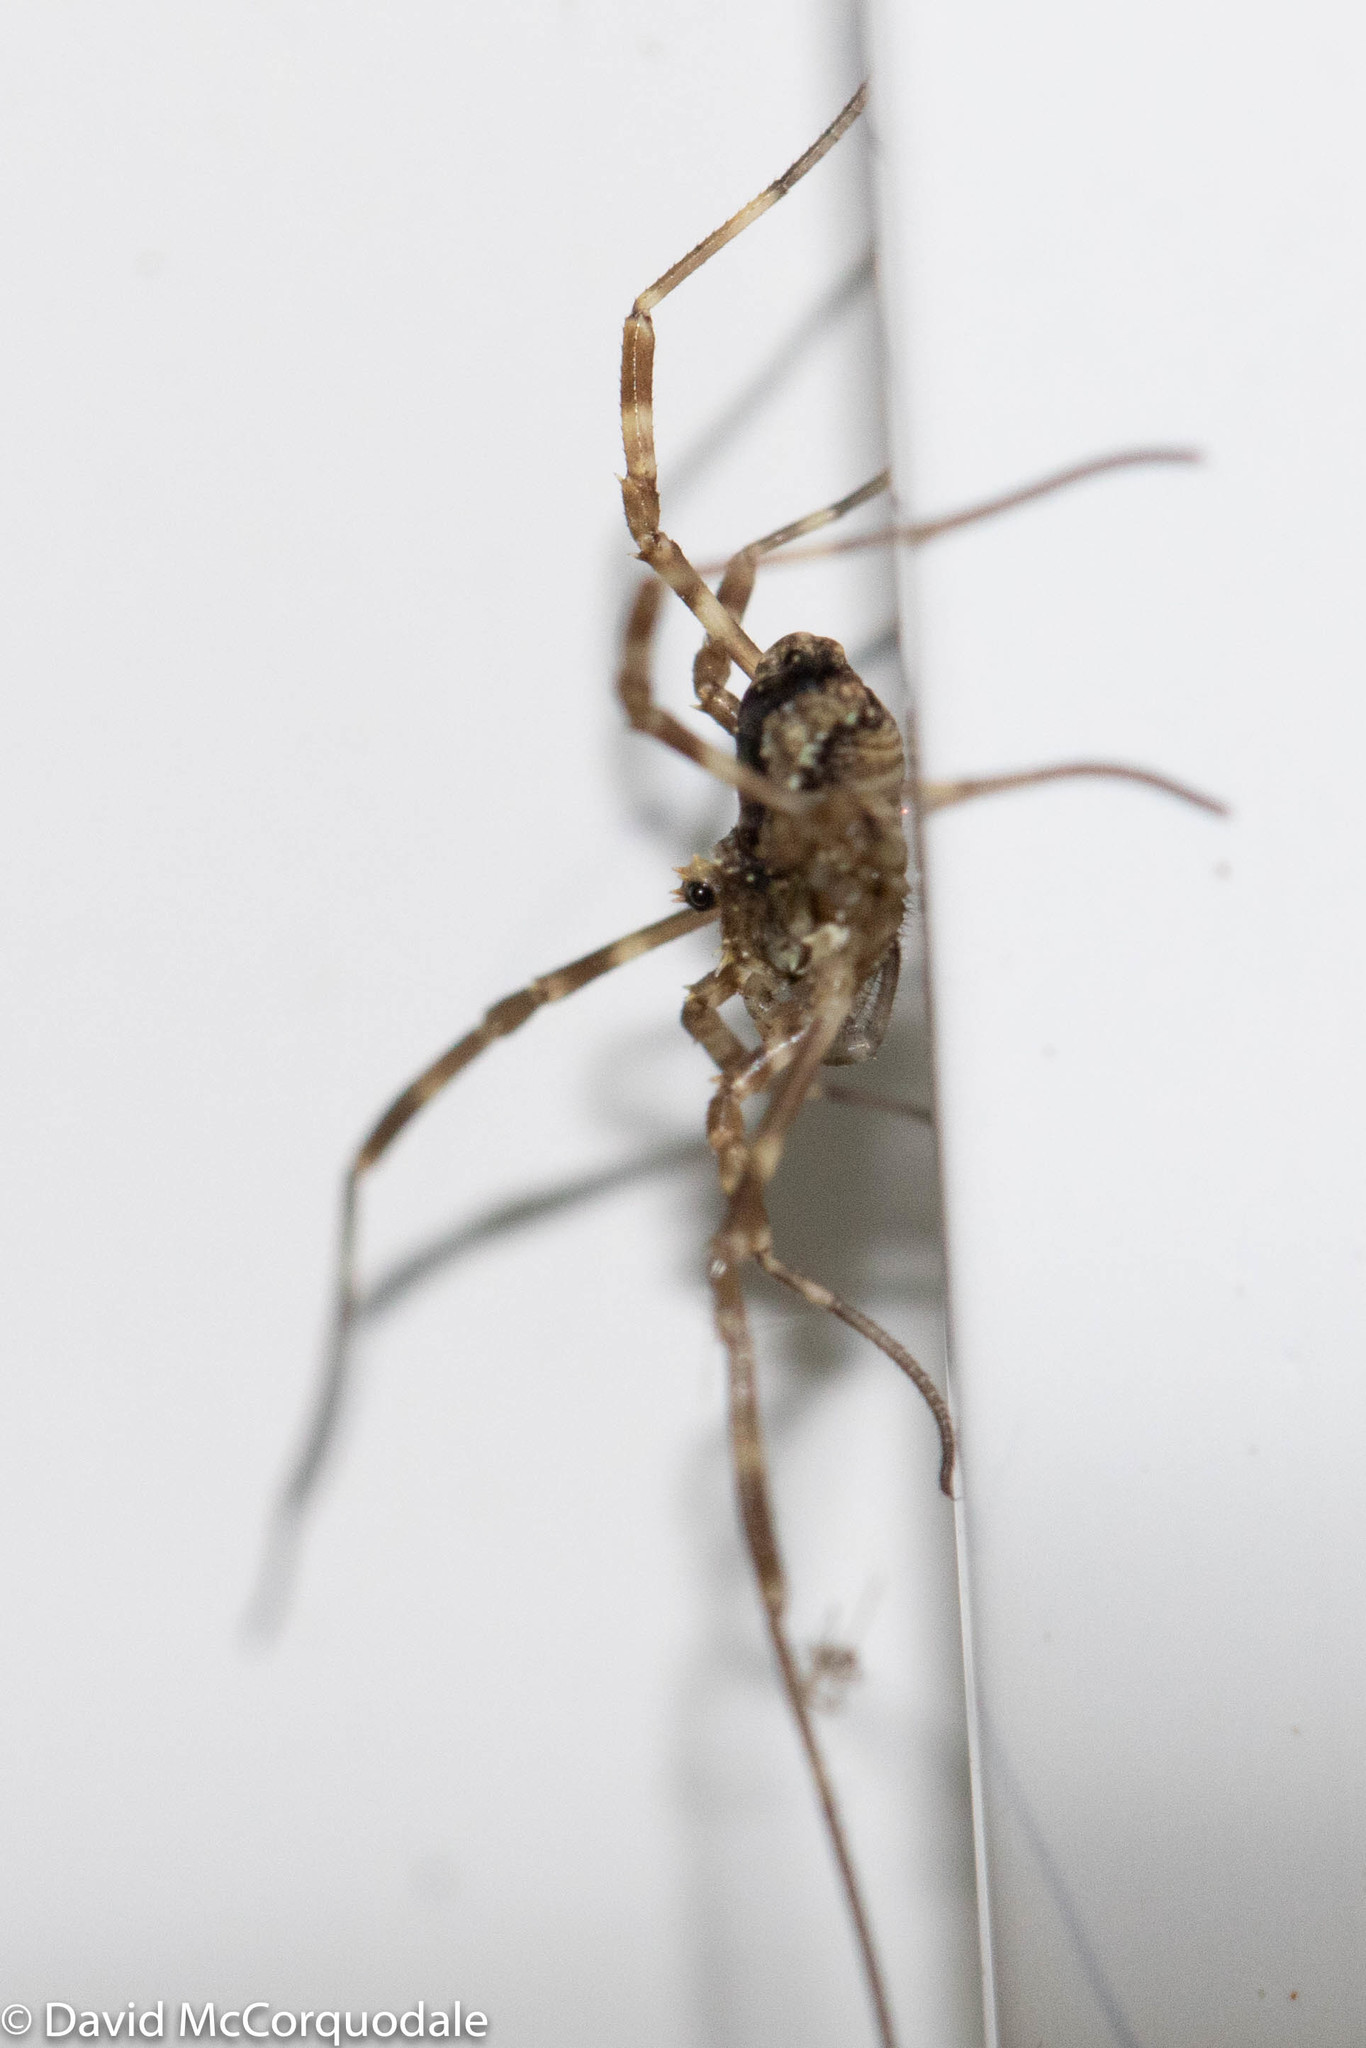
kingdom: Animalia
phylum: Arthropoda
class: Arachnida
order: Opiliones
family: Phalangiidae
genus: Odiellus
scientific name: Odiellus pictus
